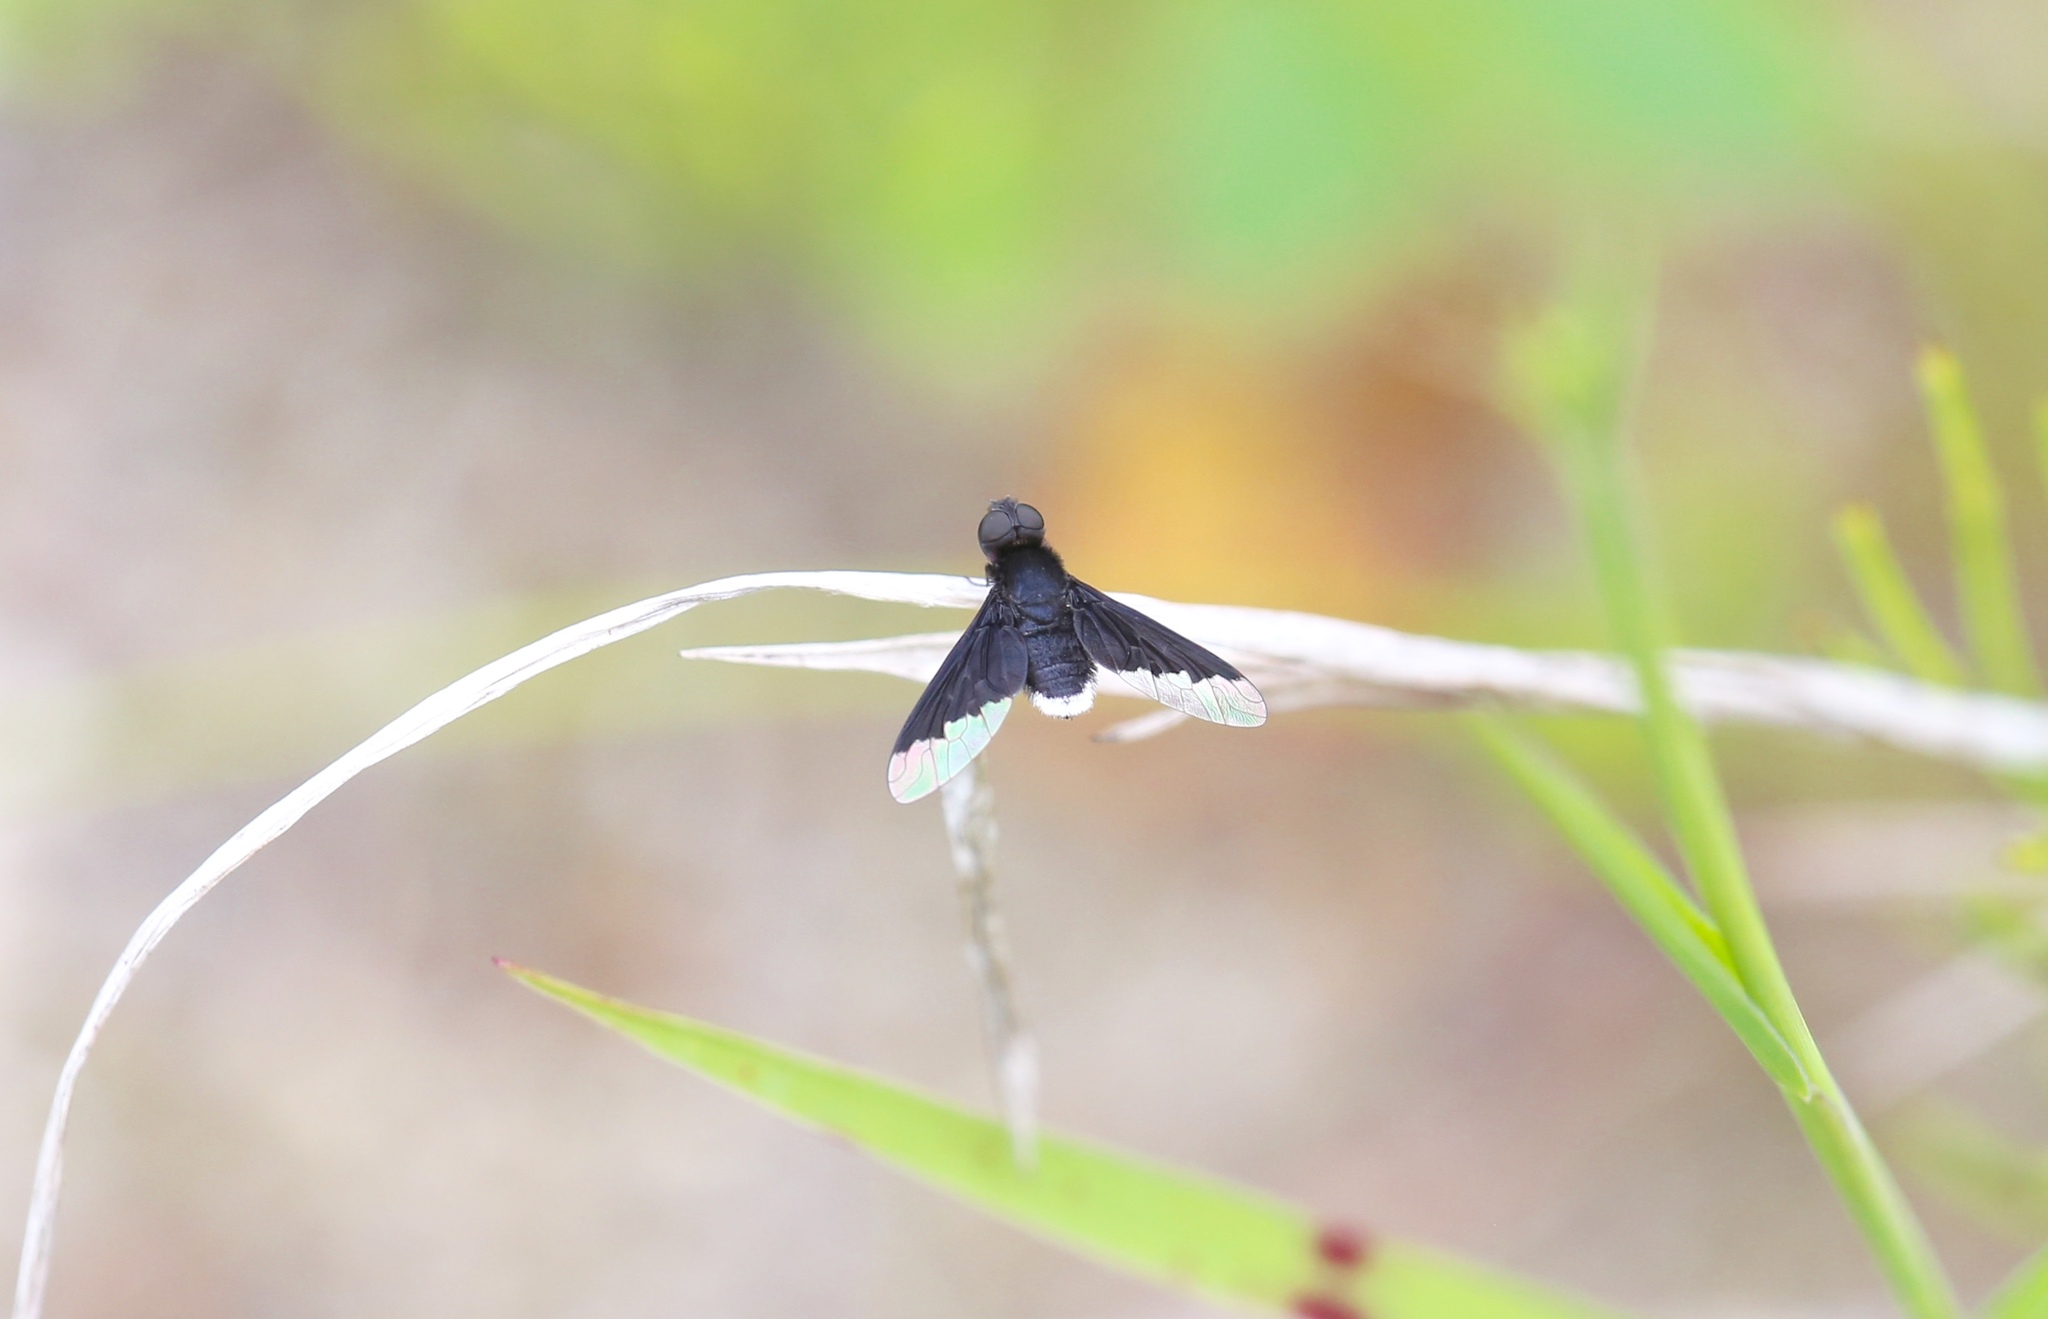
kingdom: Animalia
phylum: Arthropoda
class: Insecta
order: Diptera
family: Bombyliidae
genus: Anthrax
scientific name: Anthrax analis
